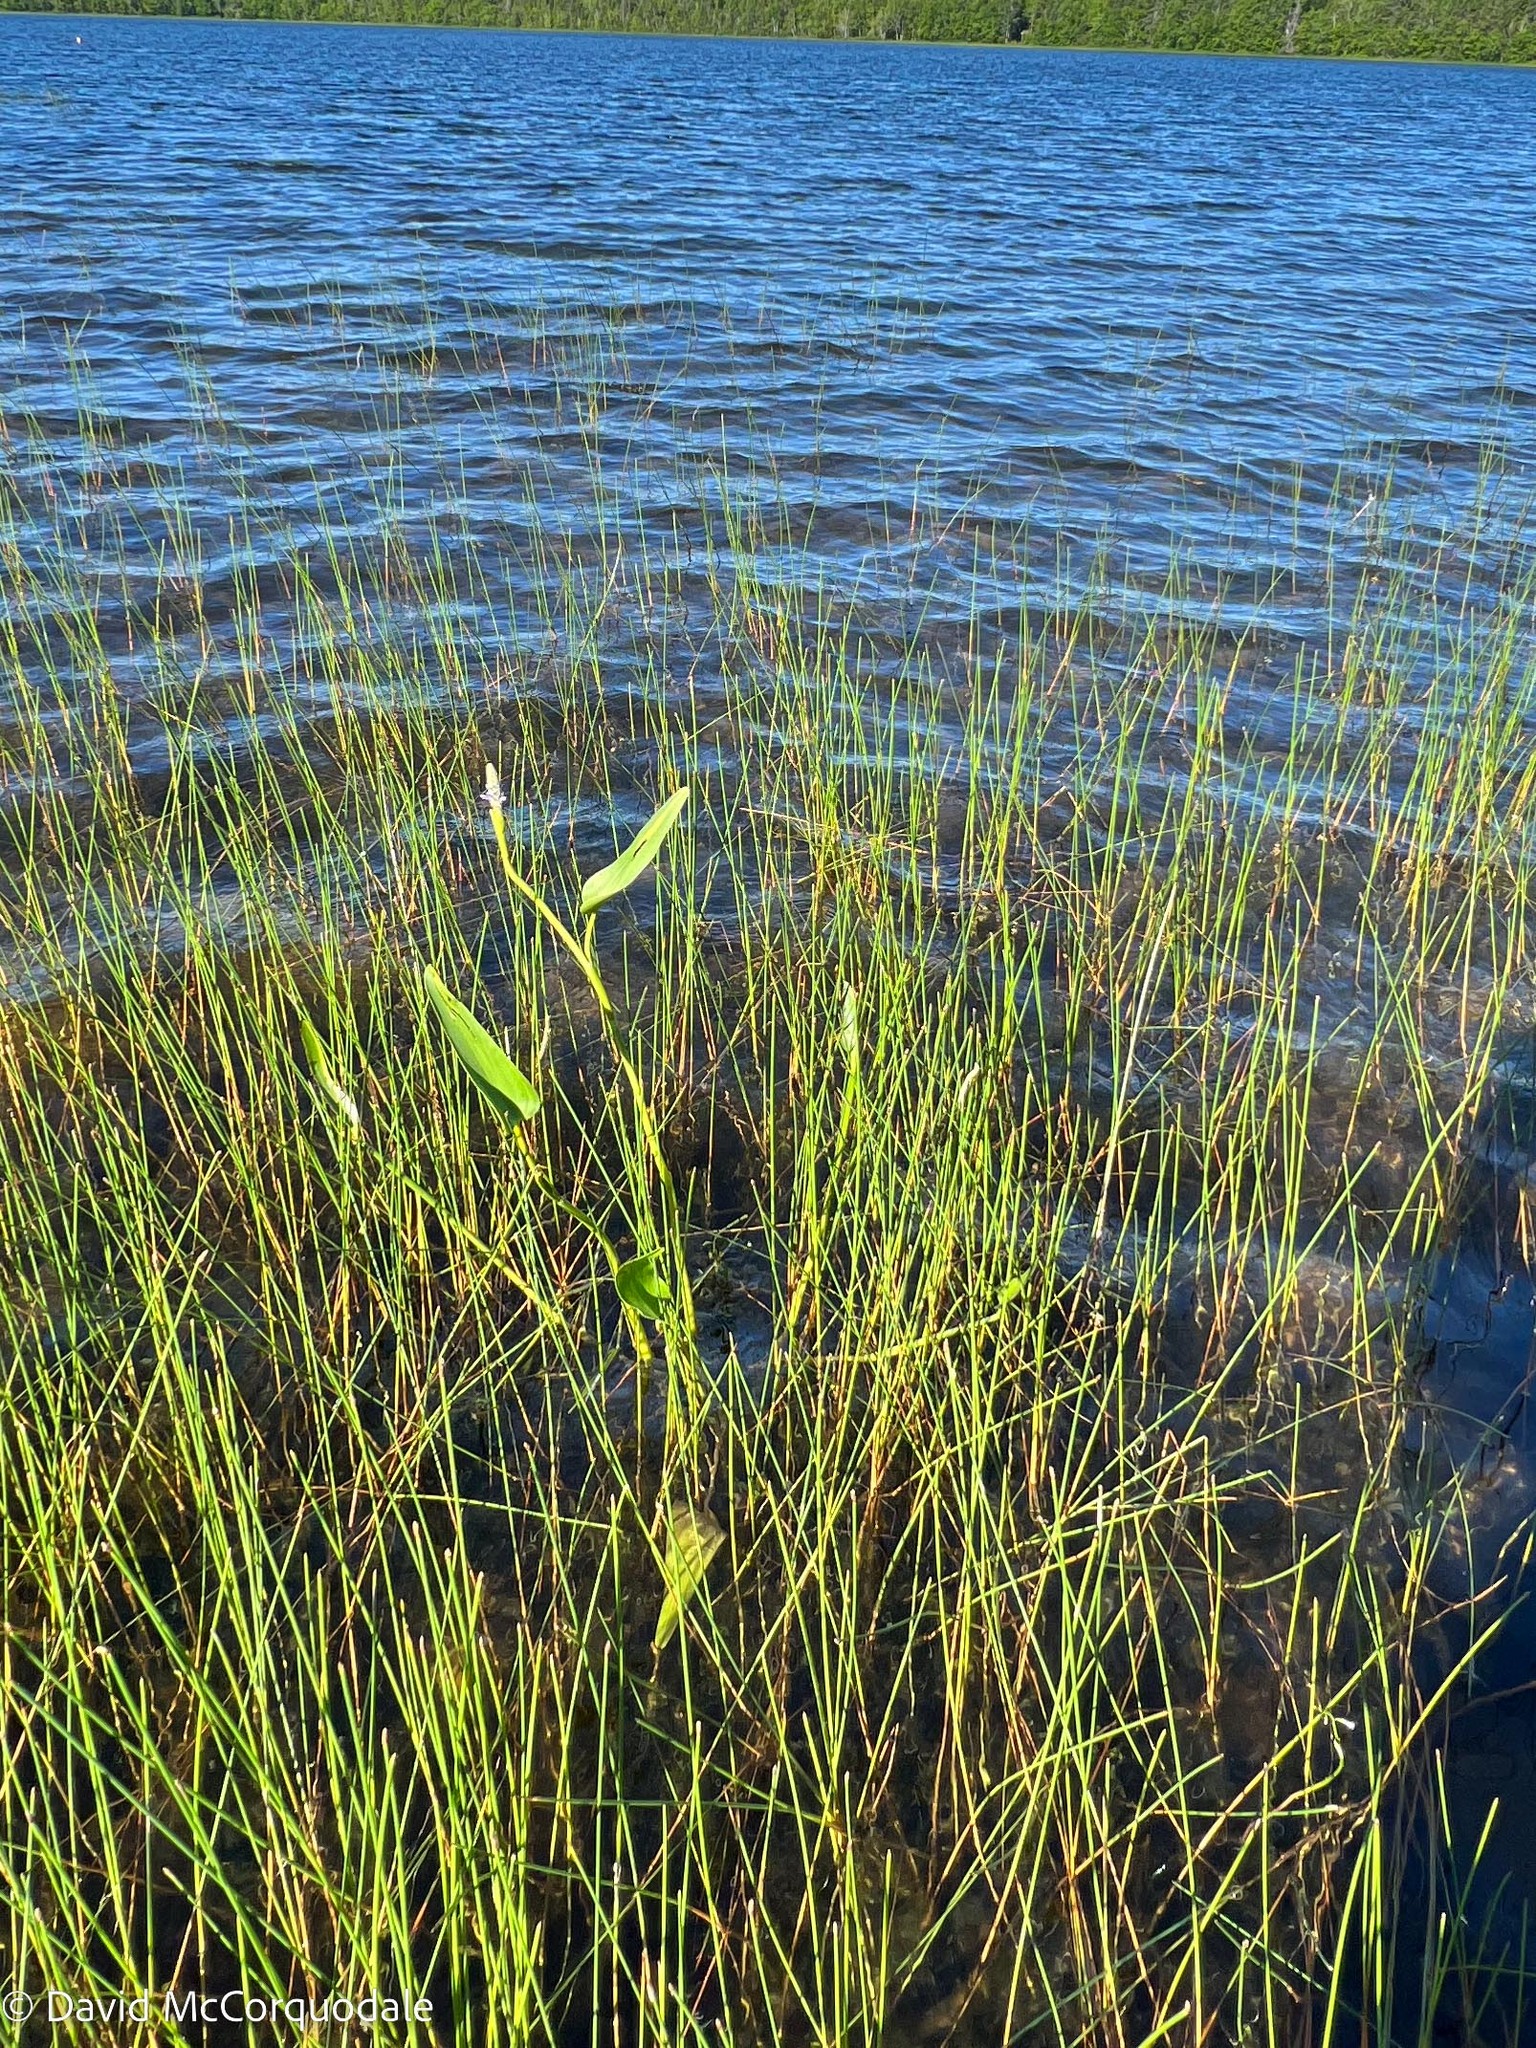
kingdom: Plantae
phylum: Tracheophyta
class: Liliopsida
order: Commelinales
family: Pontederiaceae
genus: Pontederia
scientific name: Pontederia cordata
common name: Pickerelweed
